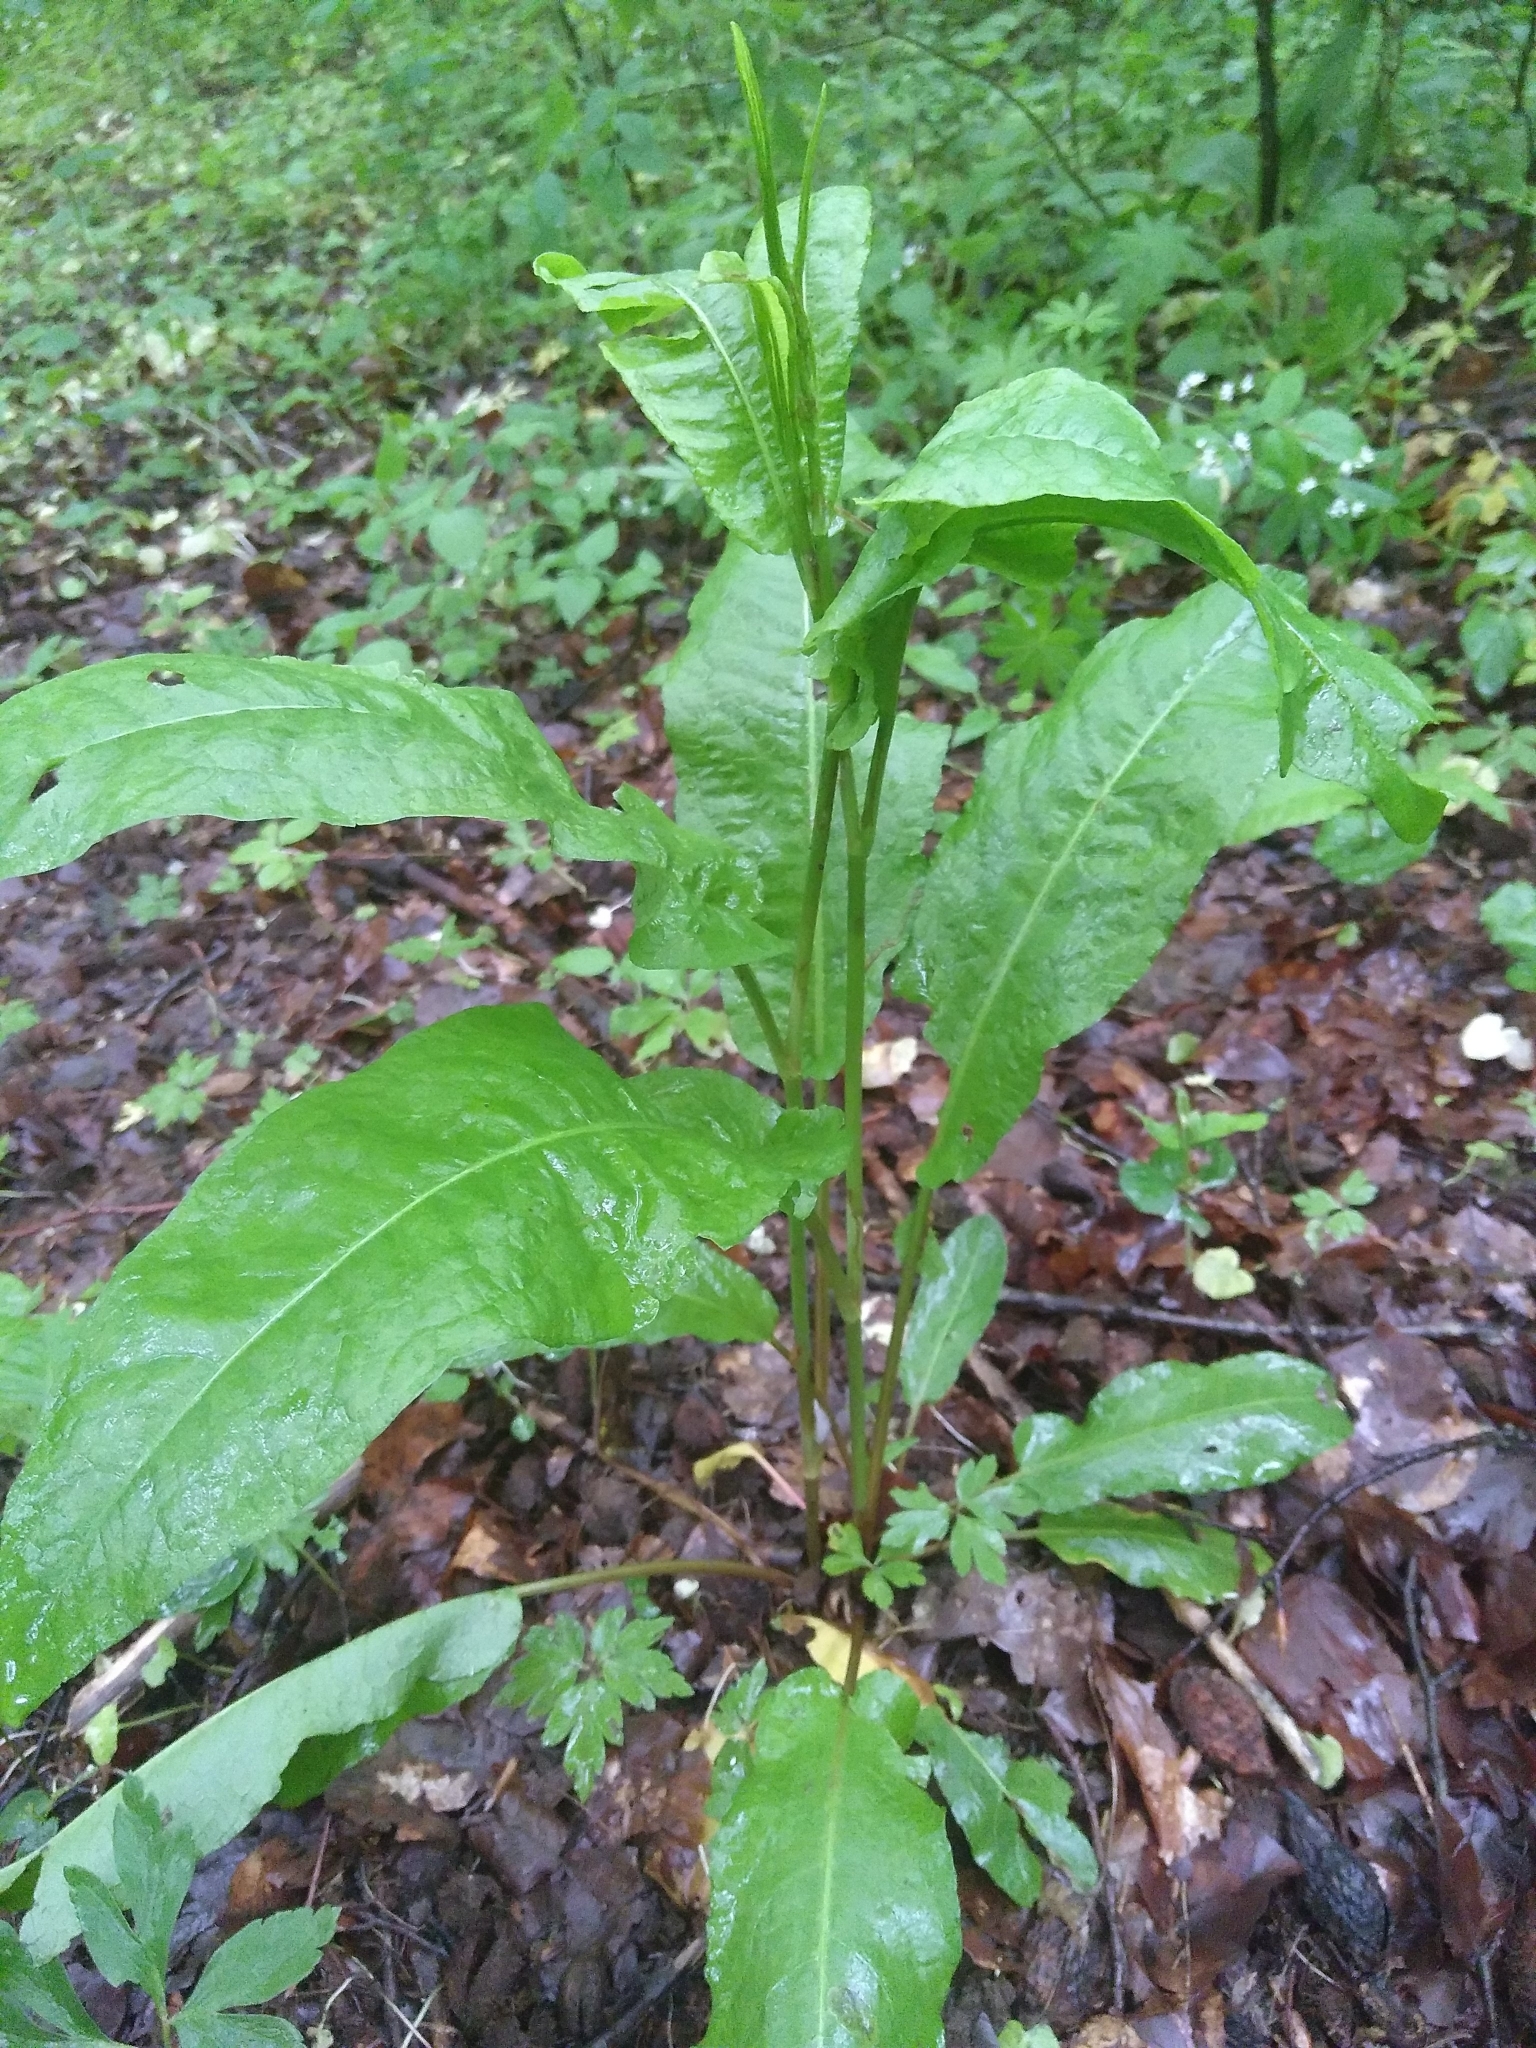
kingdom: Plantae
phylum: Tracheophyta
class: Magnoliopsida
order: Caryophyllales
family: Polygonaceae
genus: Rumex
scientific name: Rumex obtusifolius
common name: Bitter dock
